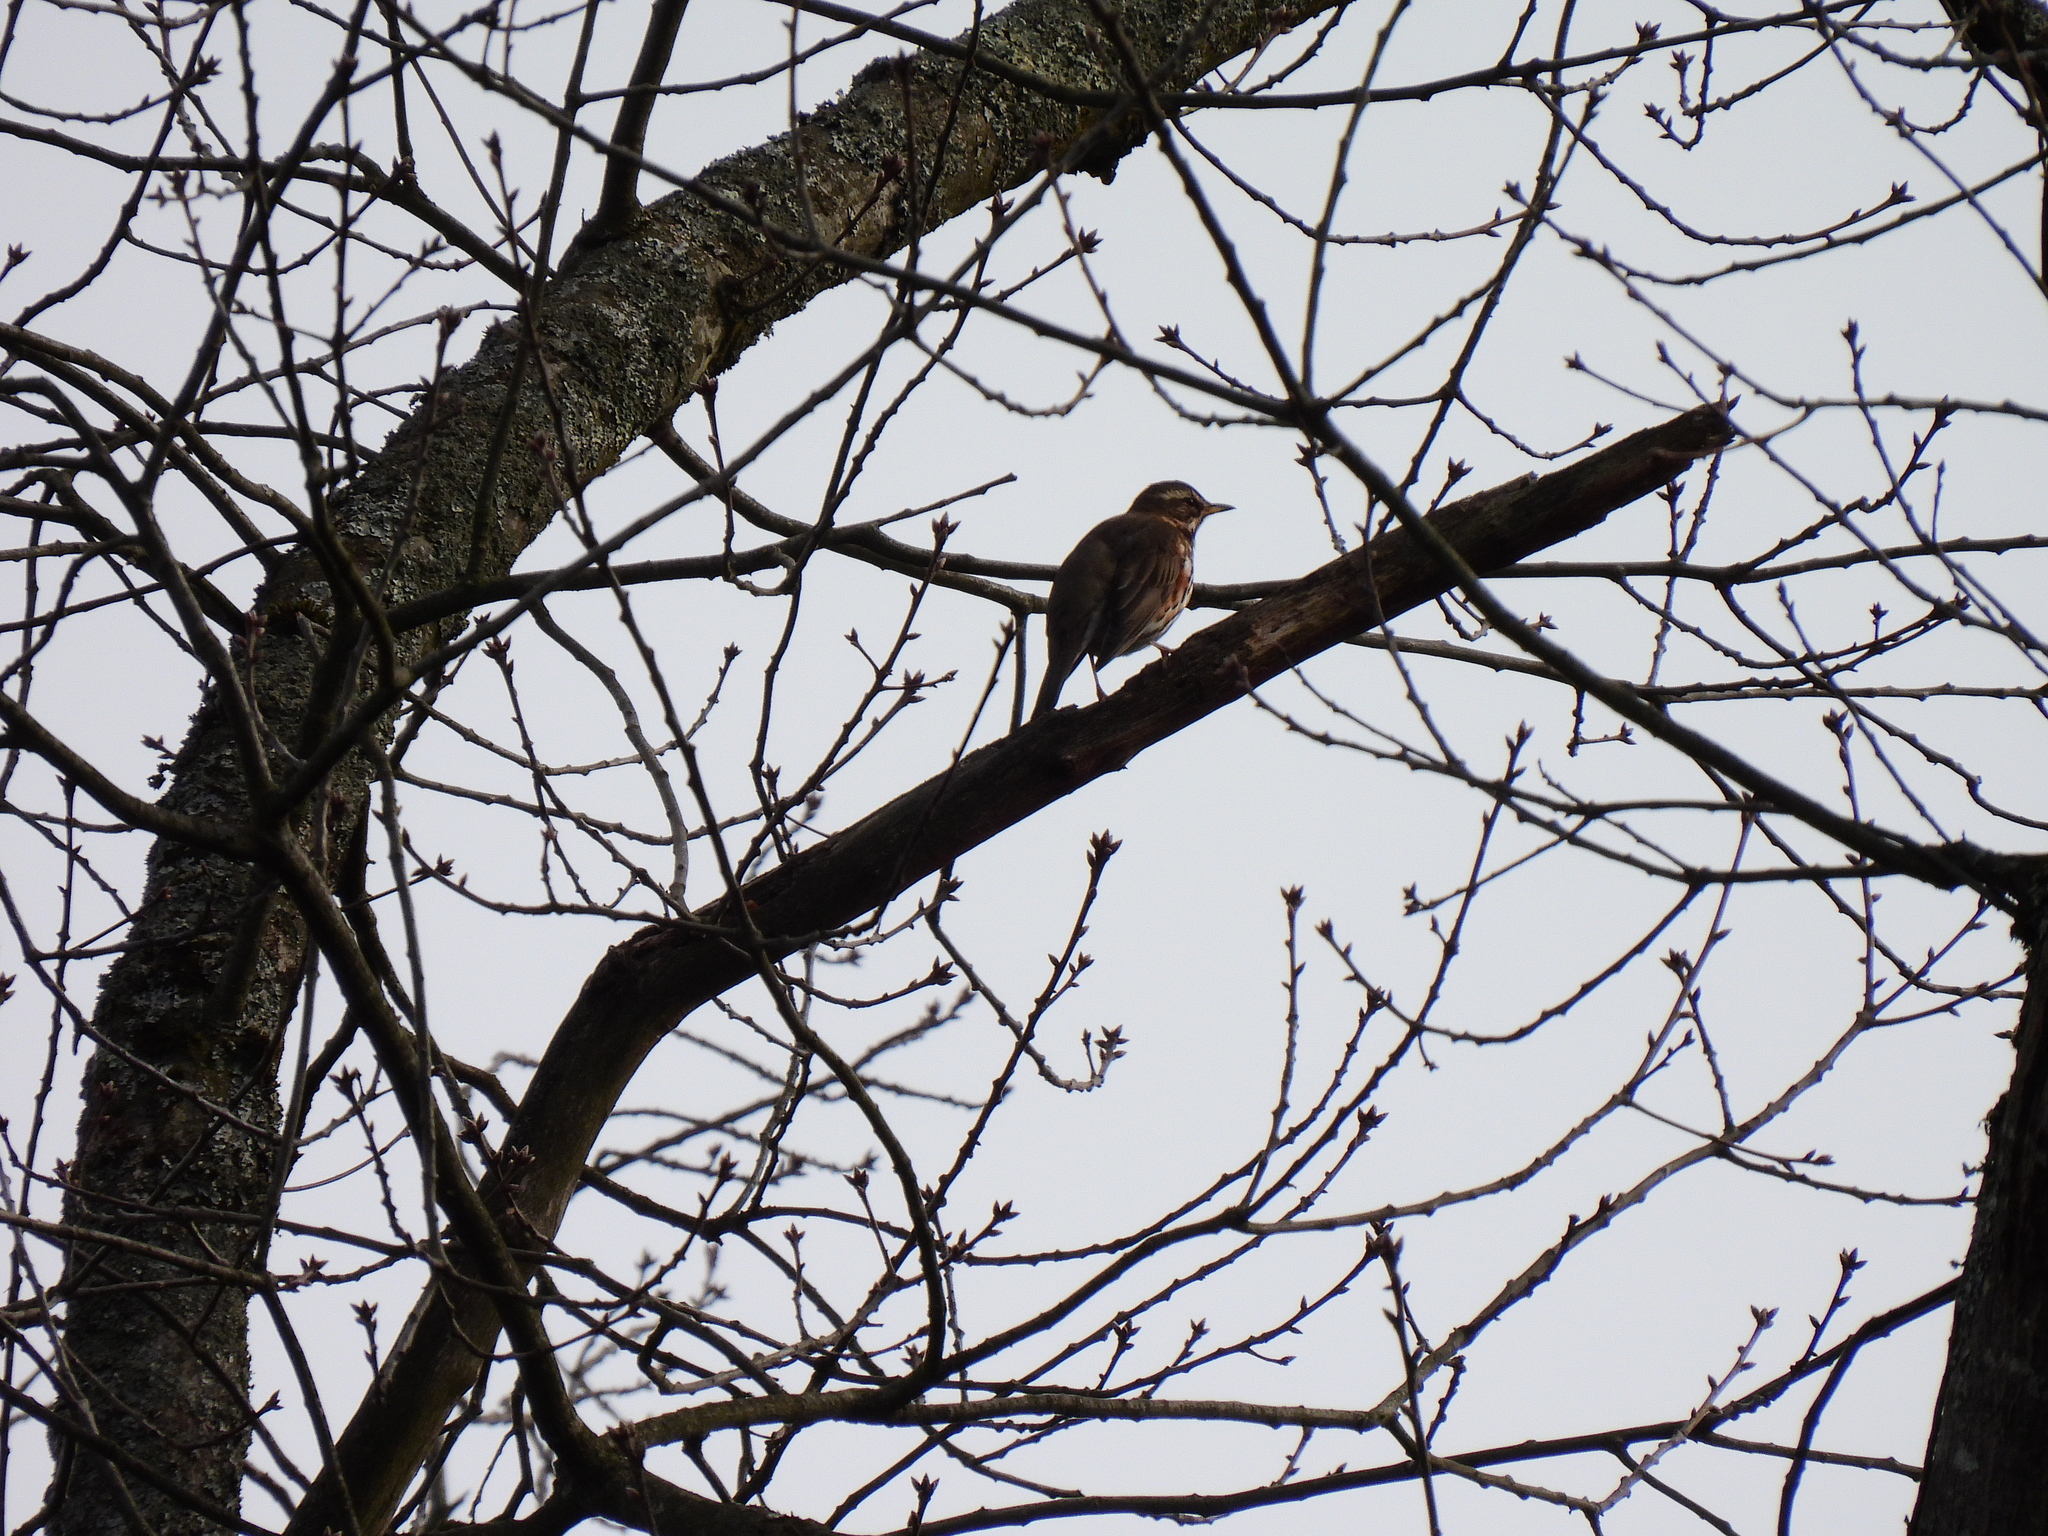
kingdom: Animalia
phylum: Chordata
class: Aves
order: Passeriformes
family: Turdidae
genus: Turdus
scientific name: Turdus iliacus
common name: Redwing
